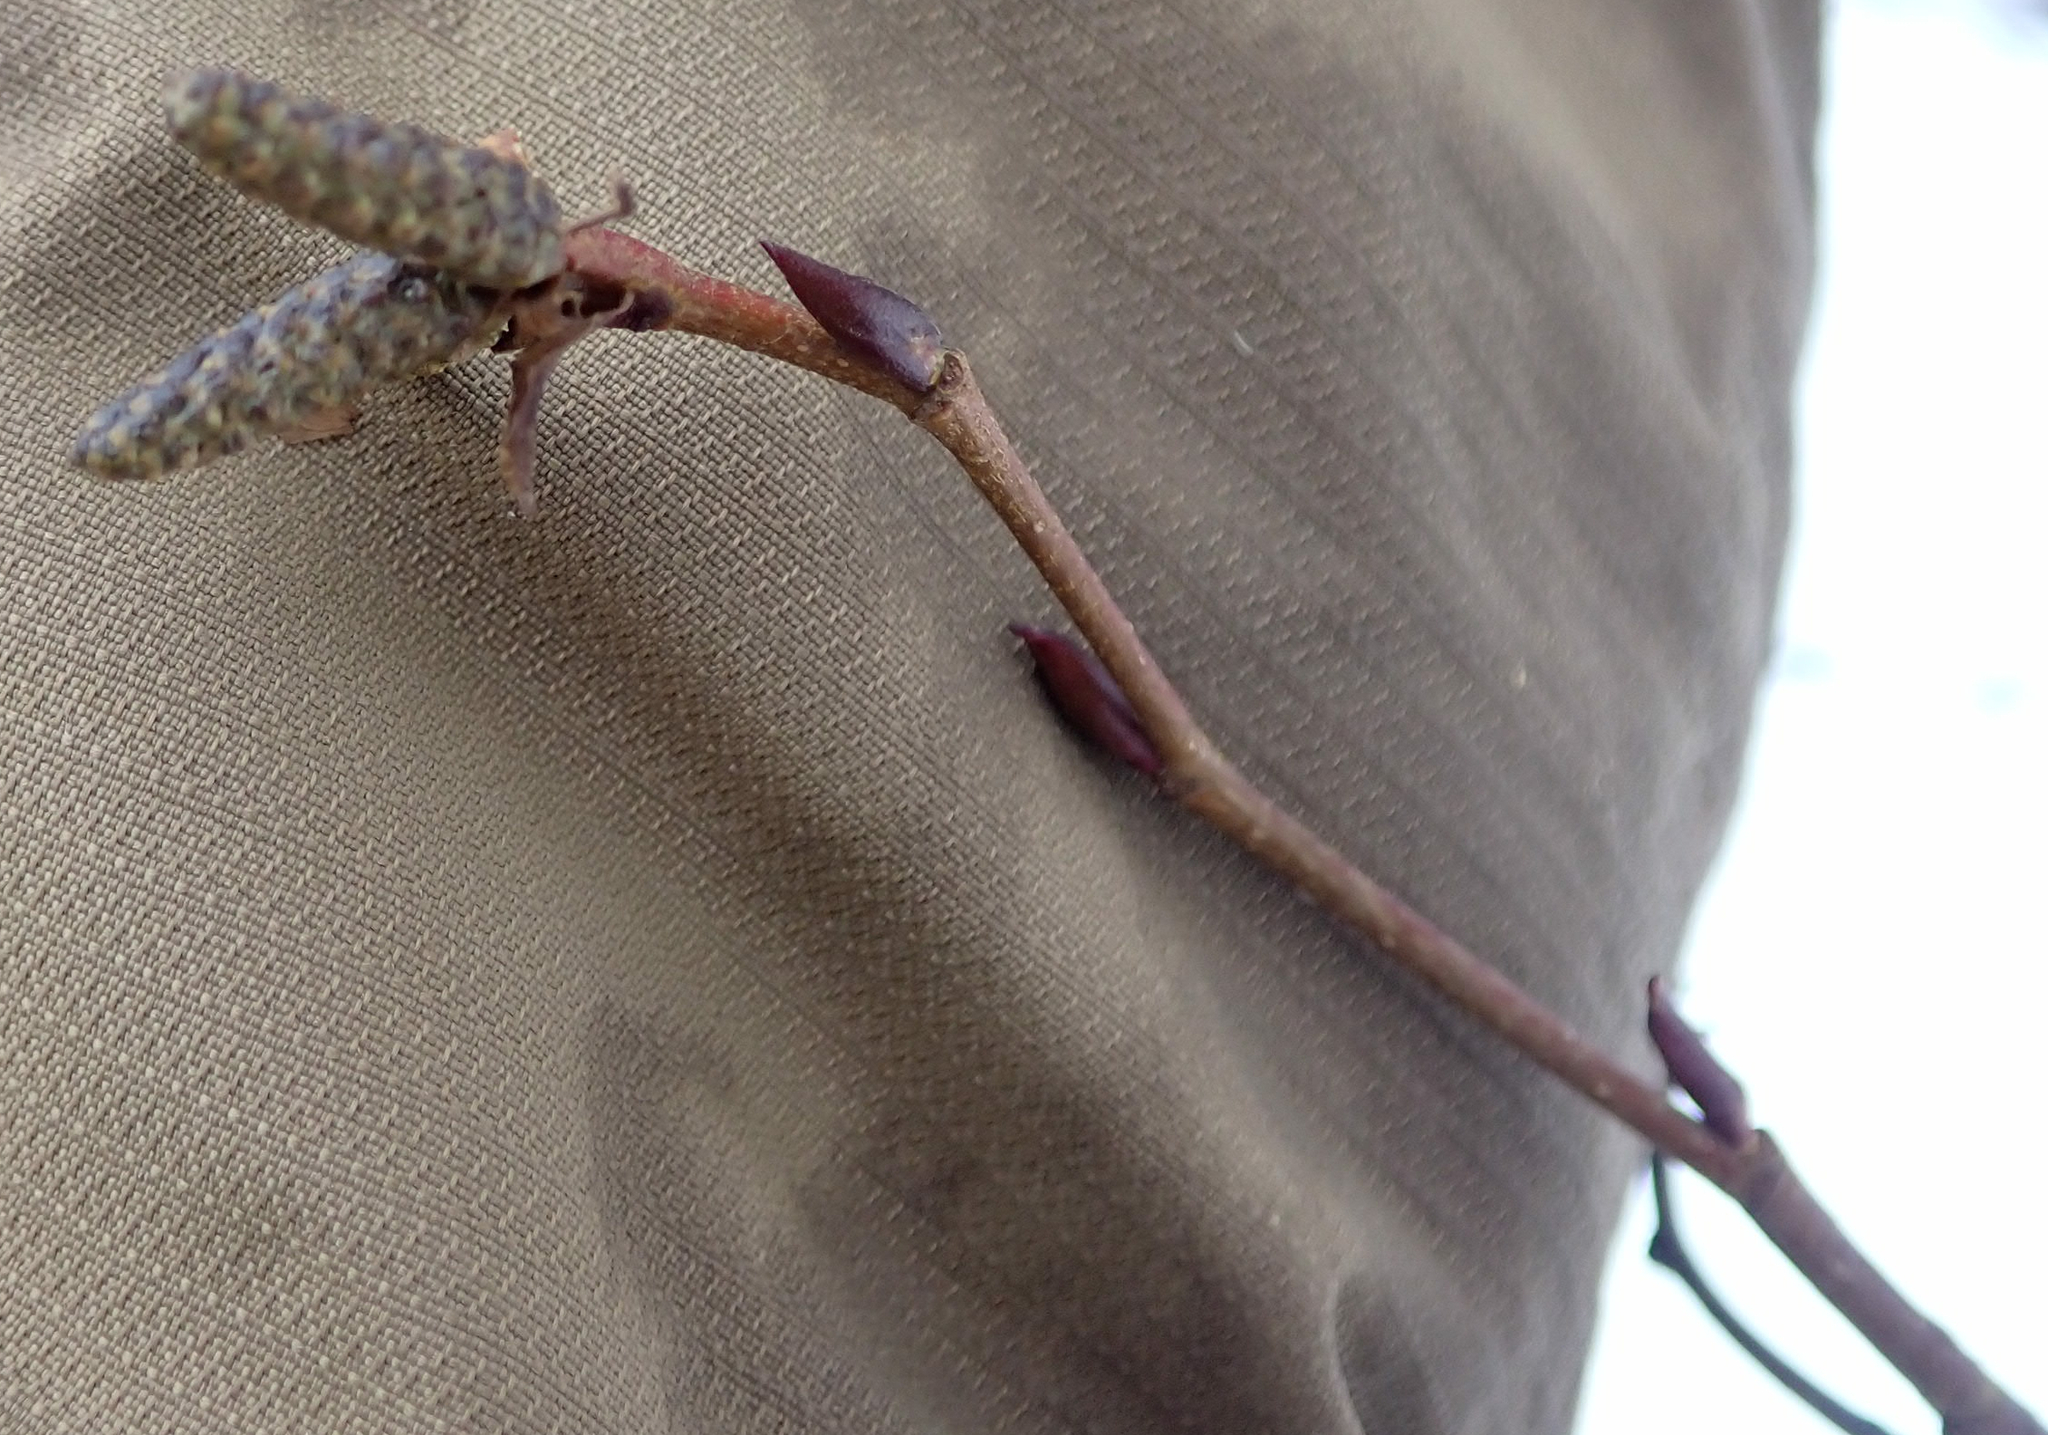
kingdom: Plantae
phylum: Tracheophyta
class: Magnoliopsida
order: Fagales
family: Betulaceae
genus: Alnus
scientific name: Alnus alnobetula
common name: Green alder
